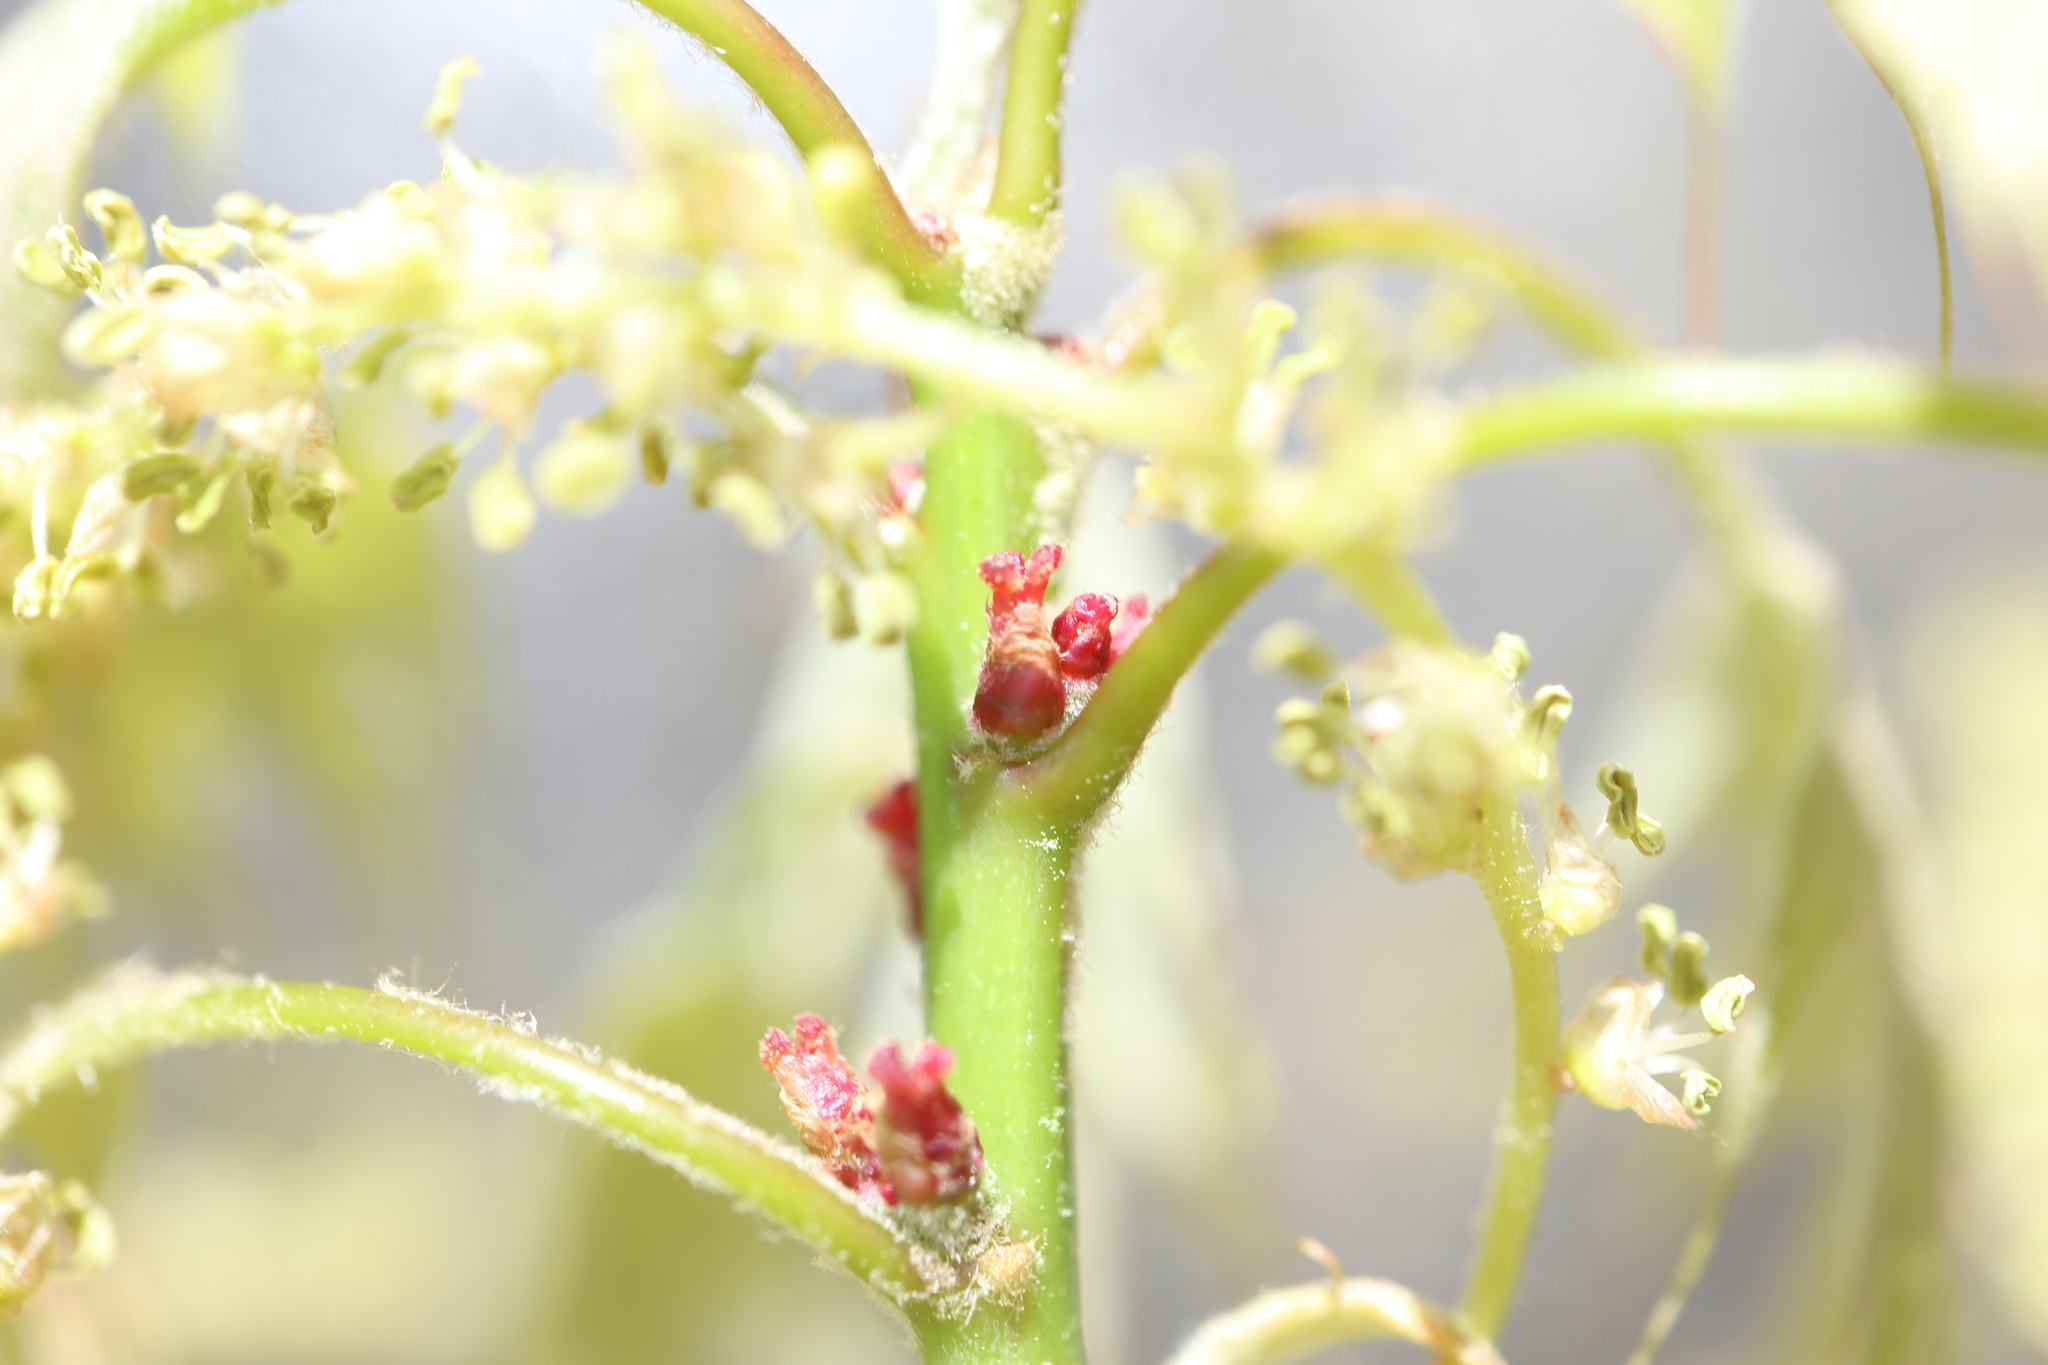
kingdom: Plantae
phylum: Tracheophyta
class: Magnoliopsida
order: Fagales
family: Fagaceae
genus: Quercus
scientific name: Quercus alba
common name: White oak
